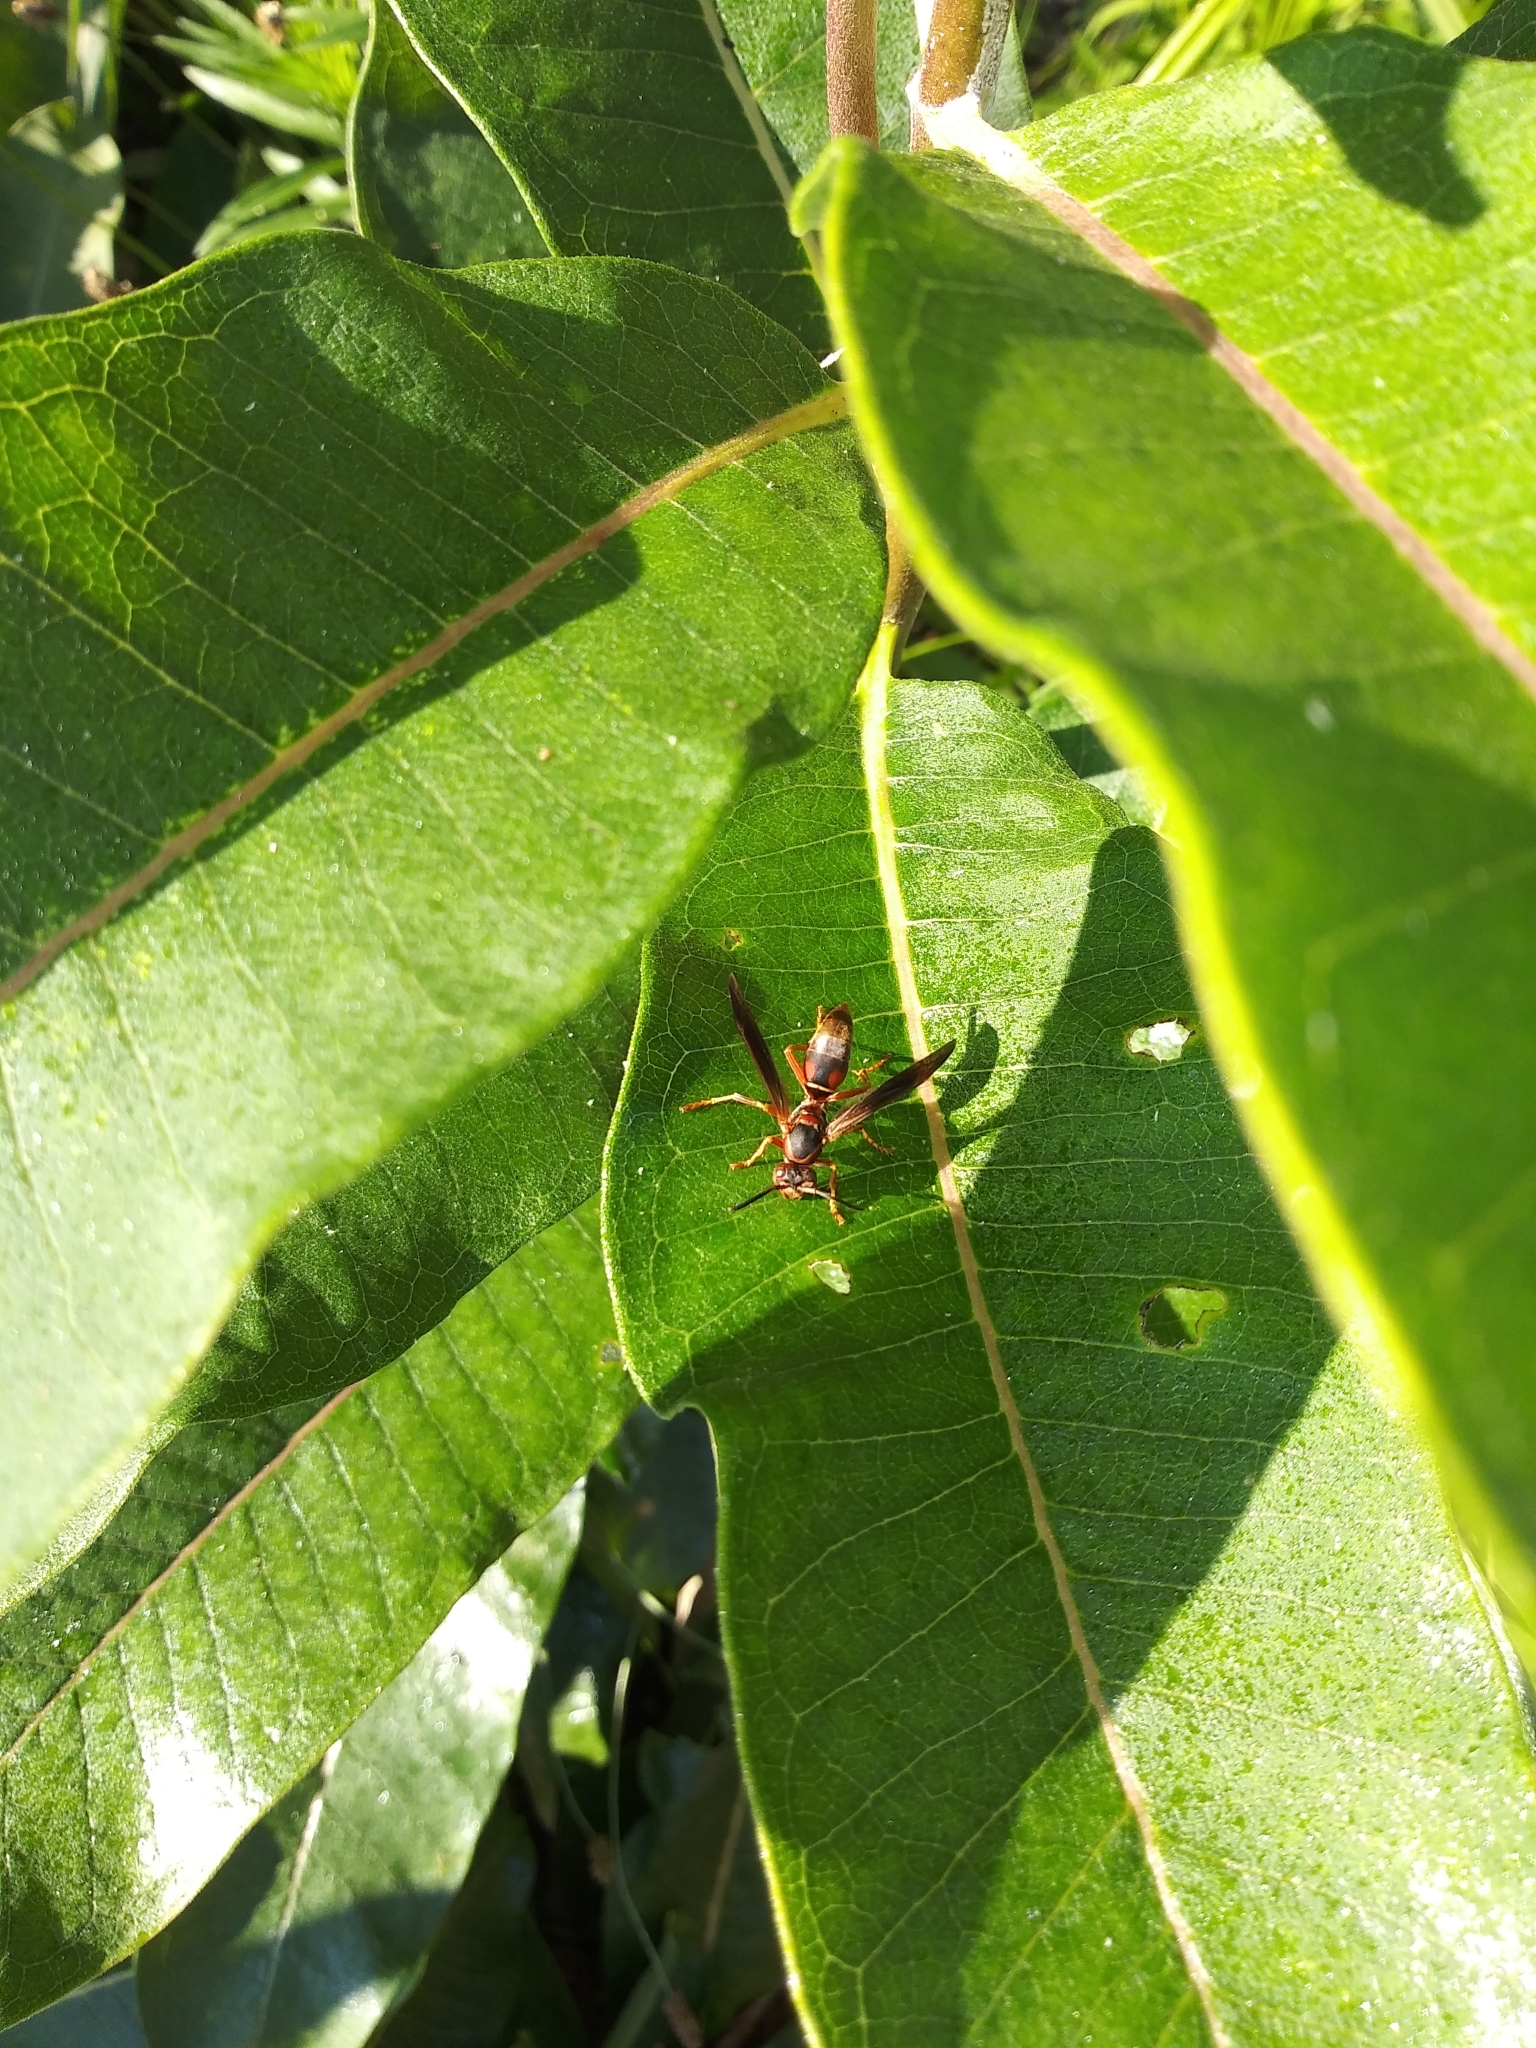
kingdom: Animalia
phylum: Arthropoda
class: Insecta
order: Hymenoptera
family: Eumenidae
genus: Polistes
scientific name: Polistes fuscatus
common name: Dark paper wasp
